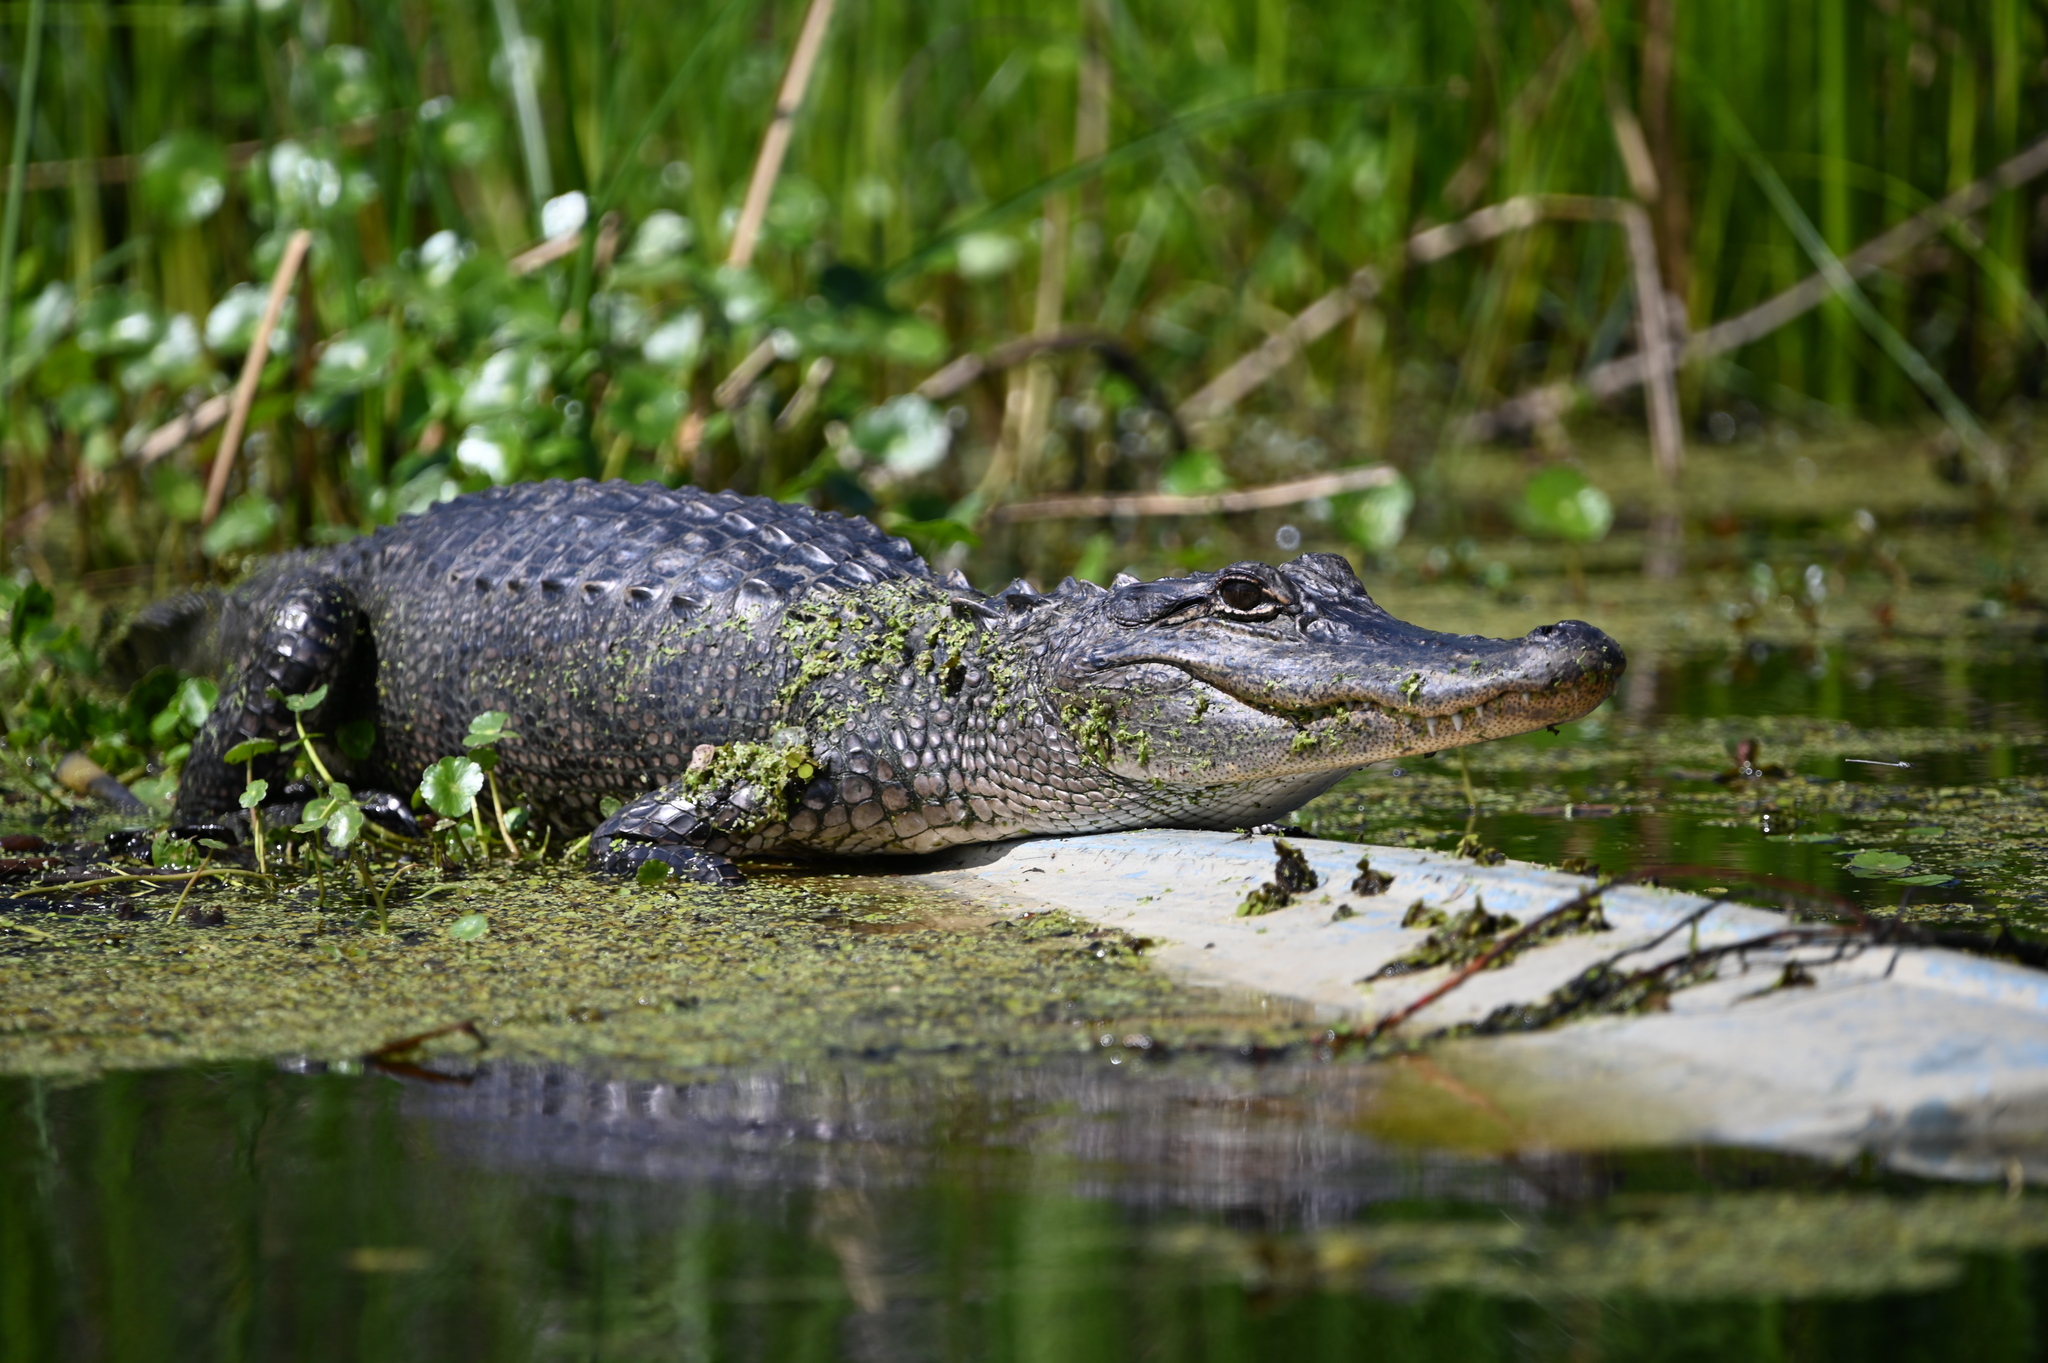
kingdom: Animalia
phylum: Chordata
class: Crocodylia
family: Alligatoridae
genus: Alligator
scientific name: Alligator mississippiensis
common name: American alligator
